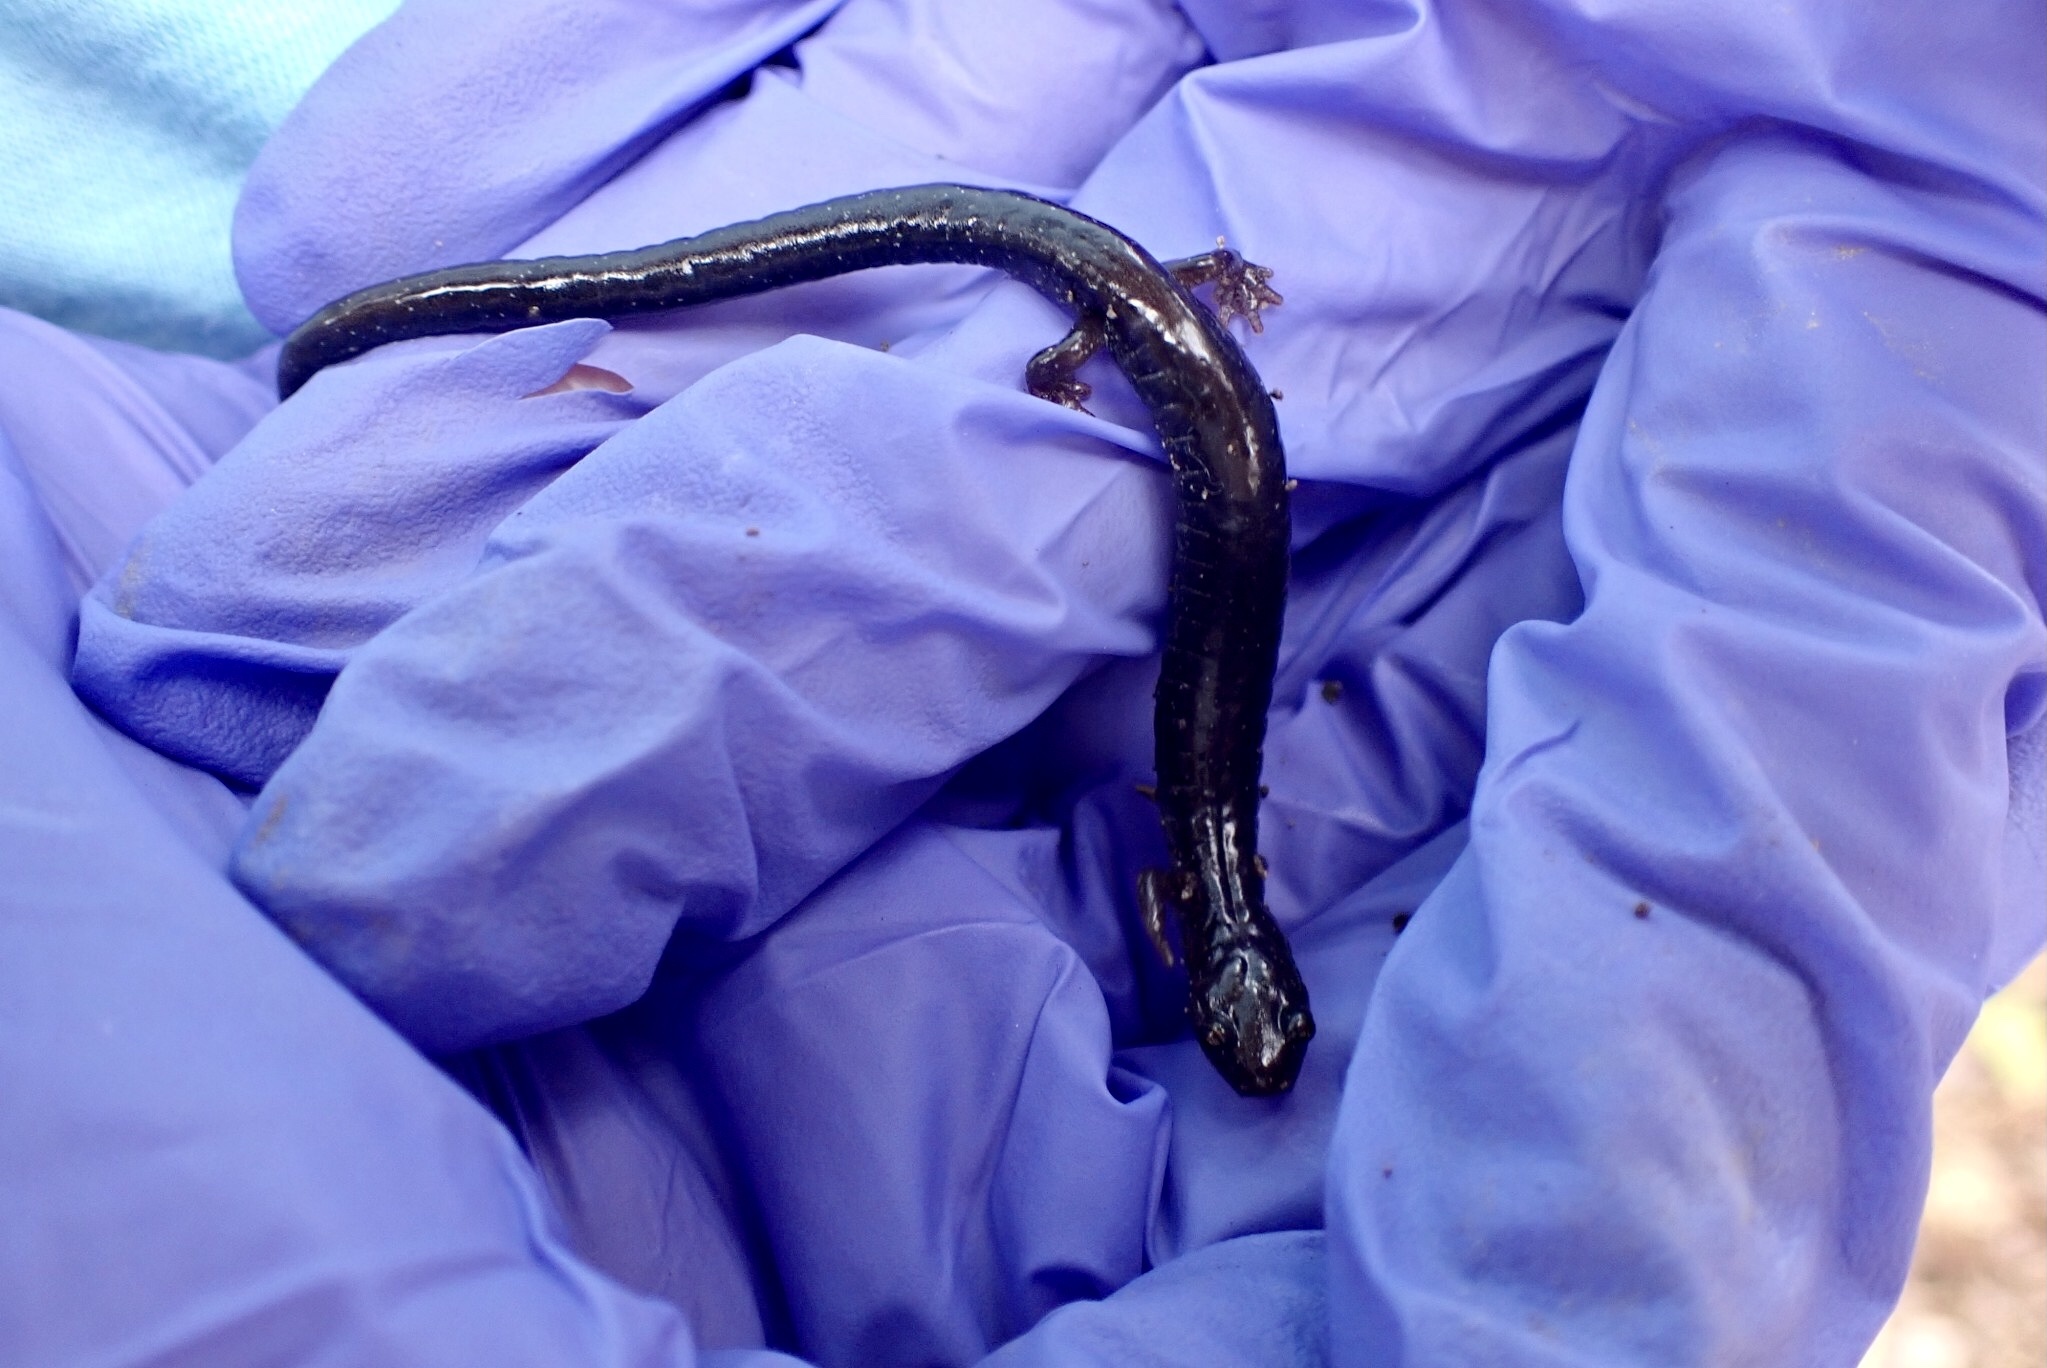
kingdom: Animalia
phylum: Chordata
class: Amphibia
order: Caudata
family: Plethodontidae
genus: Plethodon
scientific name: Plethodon cinereus
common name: Redback salamander
